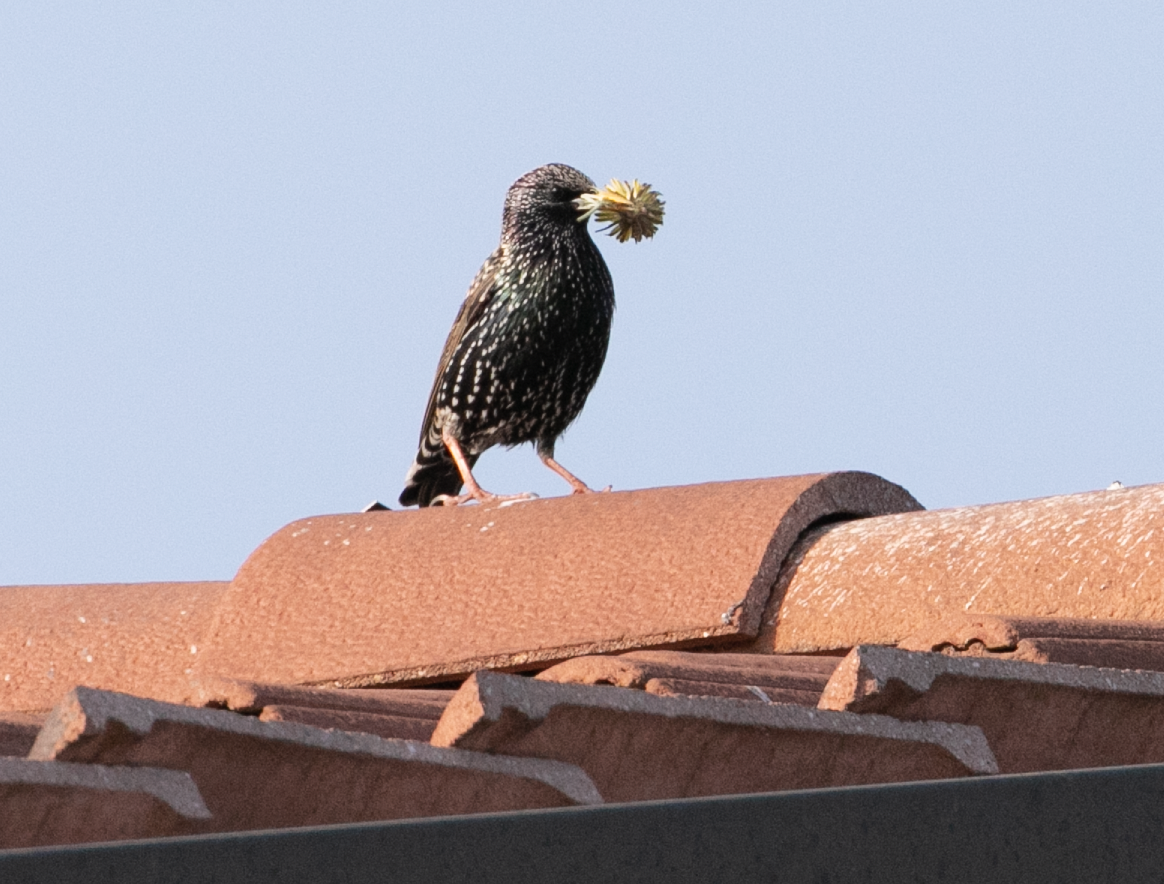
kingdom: Animalia
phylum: Chordata
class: Aves
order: Passeriformes
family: Sturnidae
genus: Sturnus
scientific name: Sturnus vulgaris
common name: Common starling
